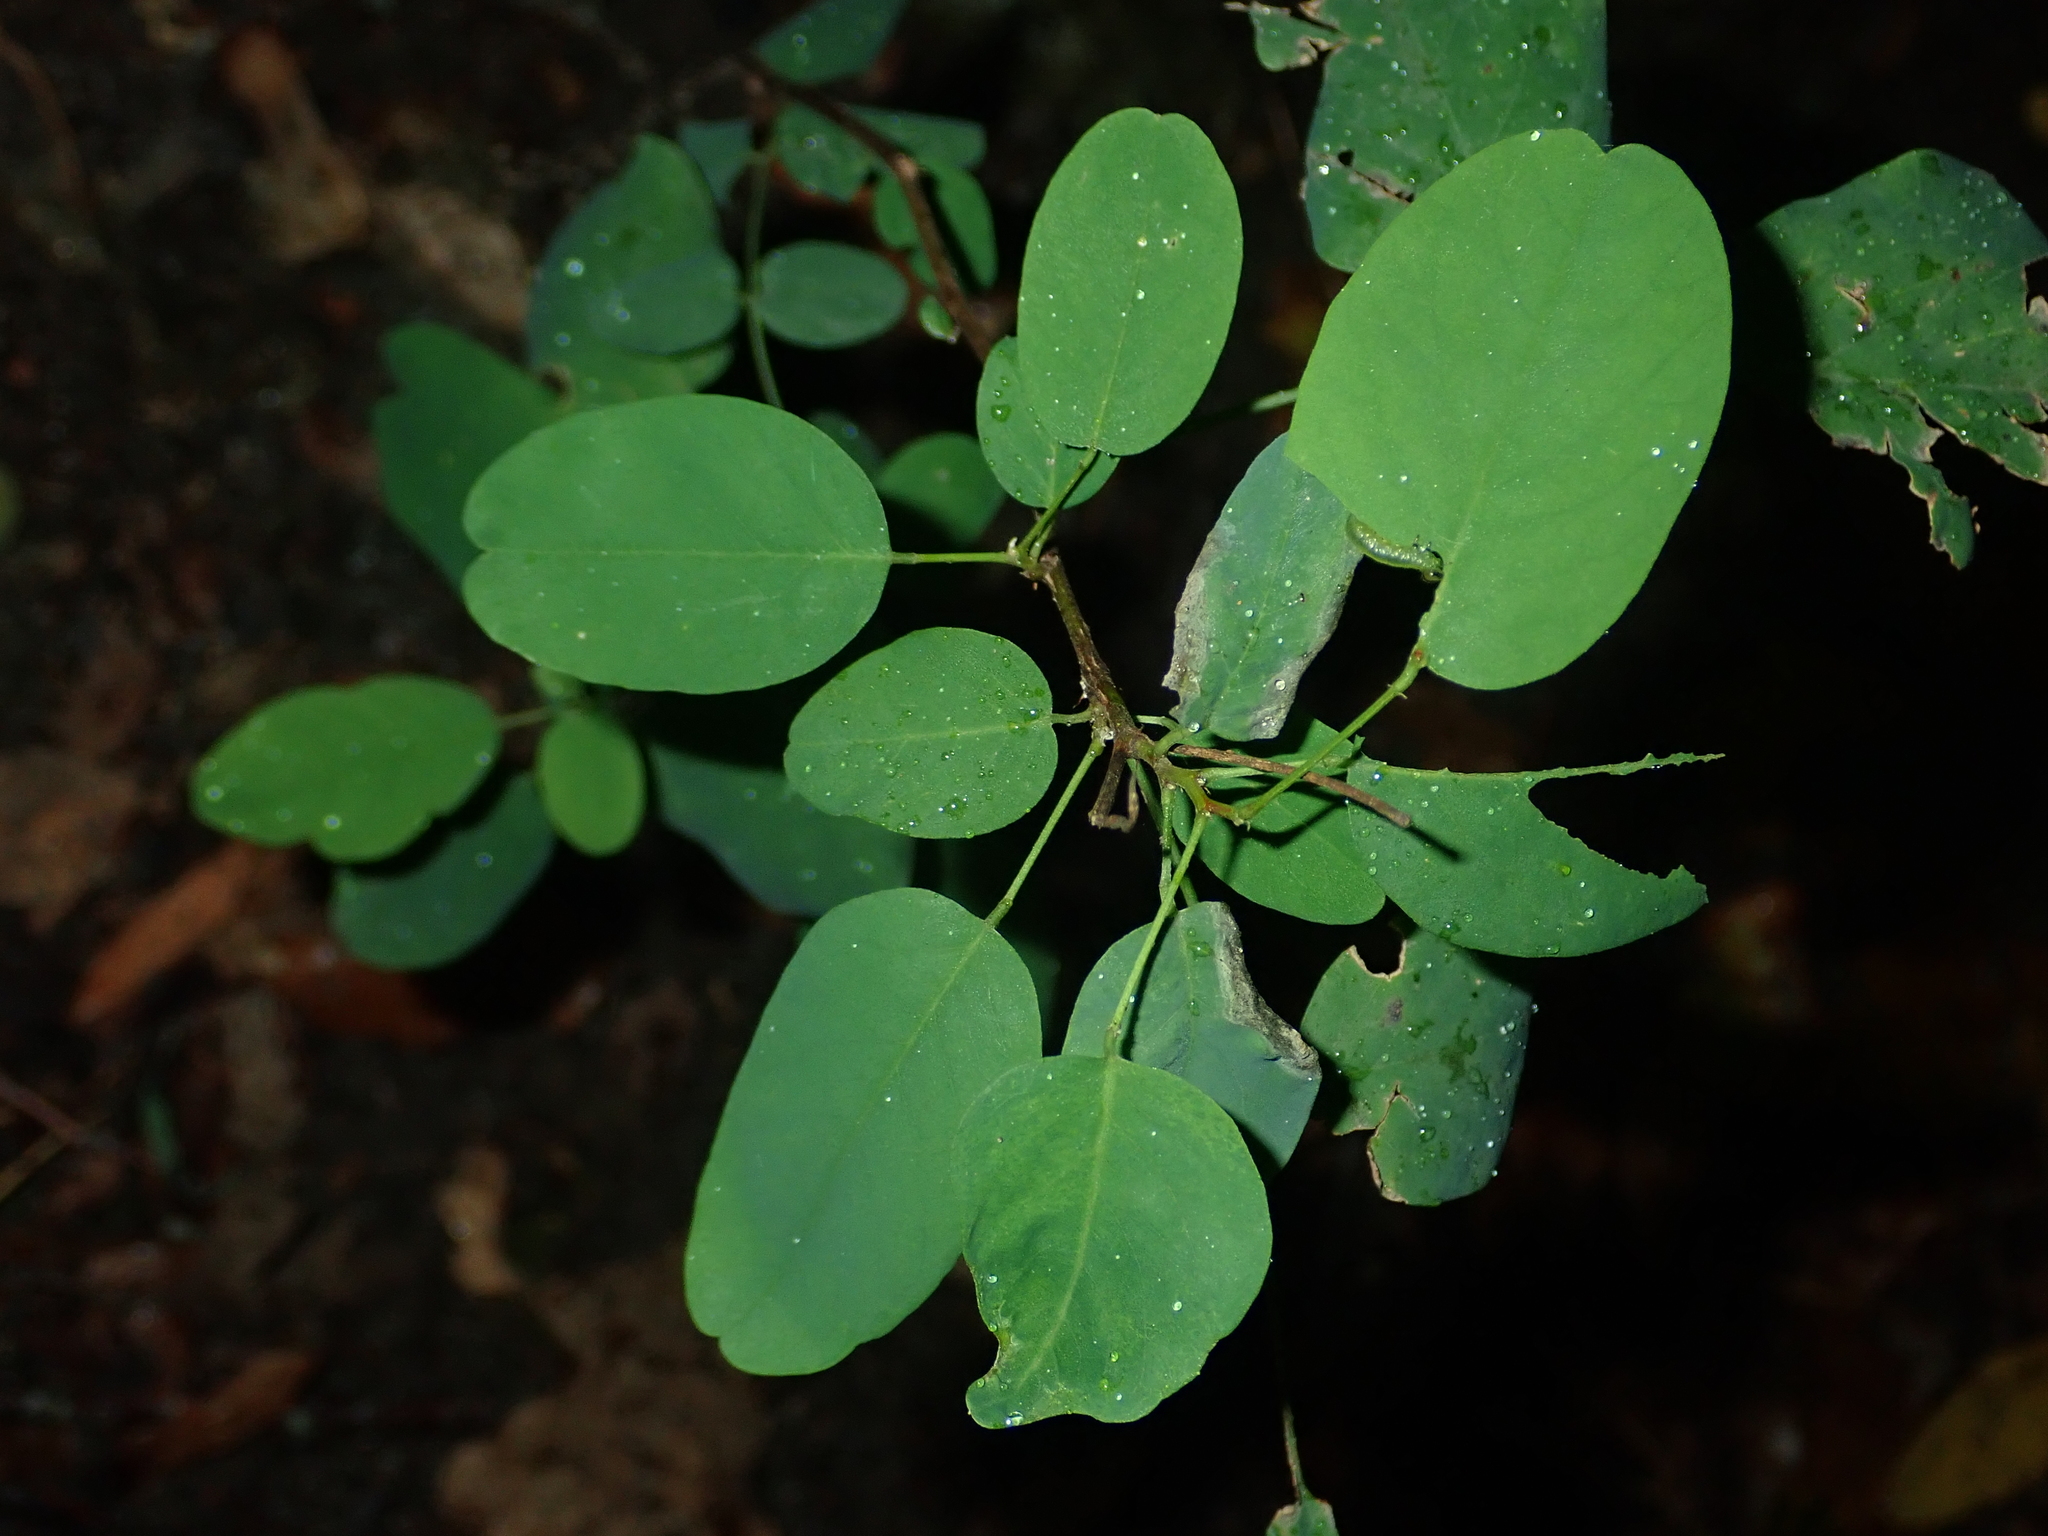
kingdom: Plantae
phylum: Tracheophyta
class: Magnoliopsida
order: Fabales
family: Fabaceae
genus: Robinia
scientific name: Robinia pseudoacacia
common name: Black locust
